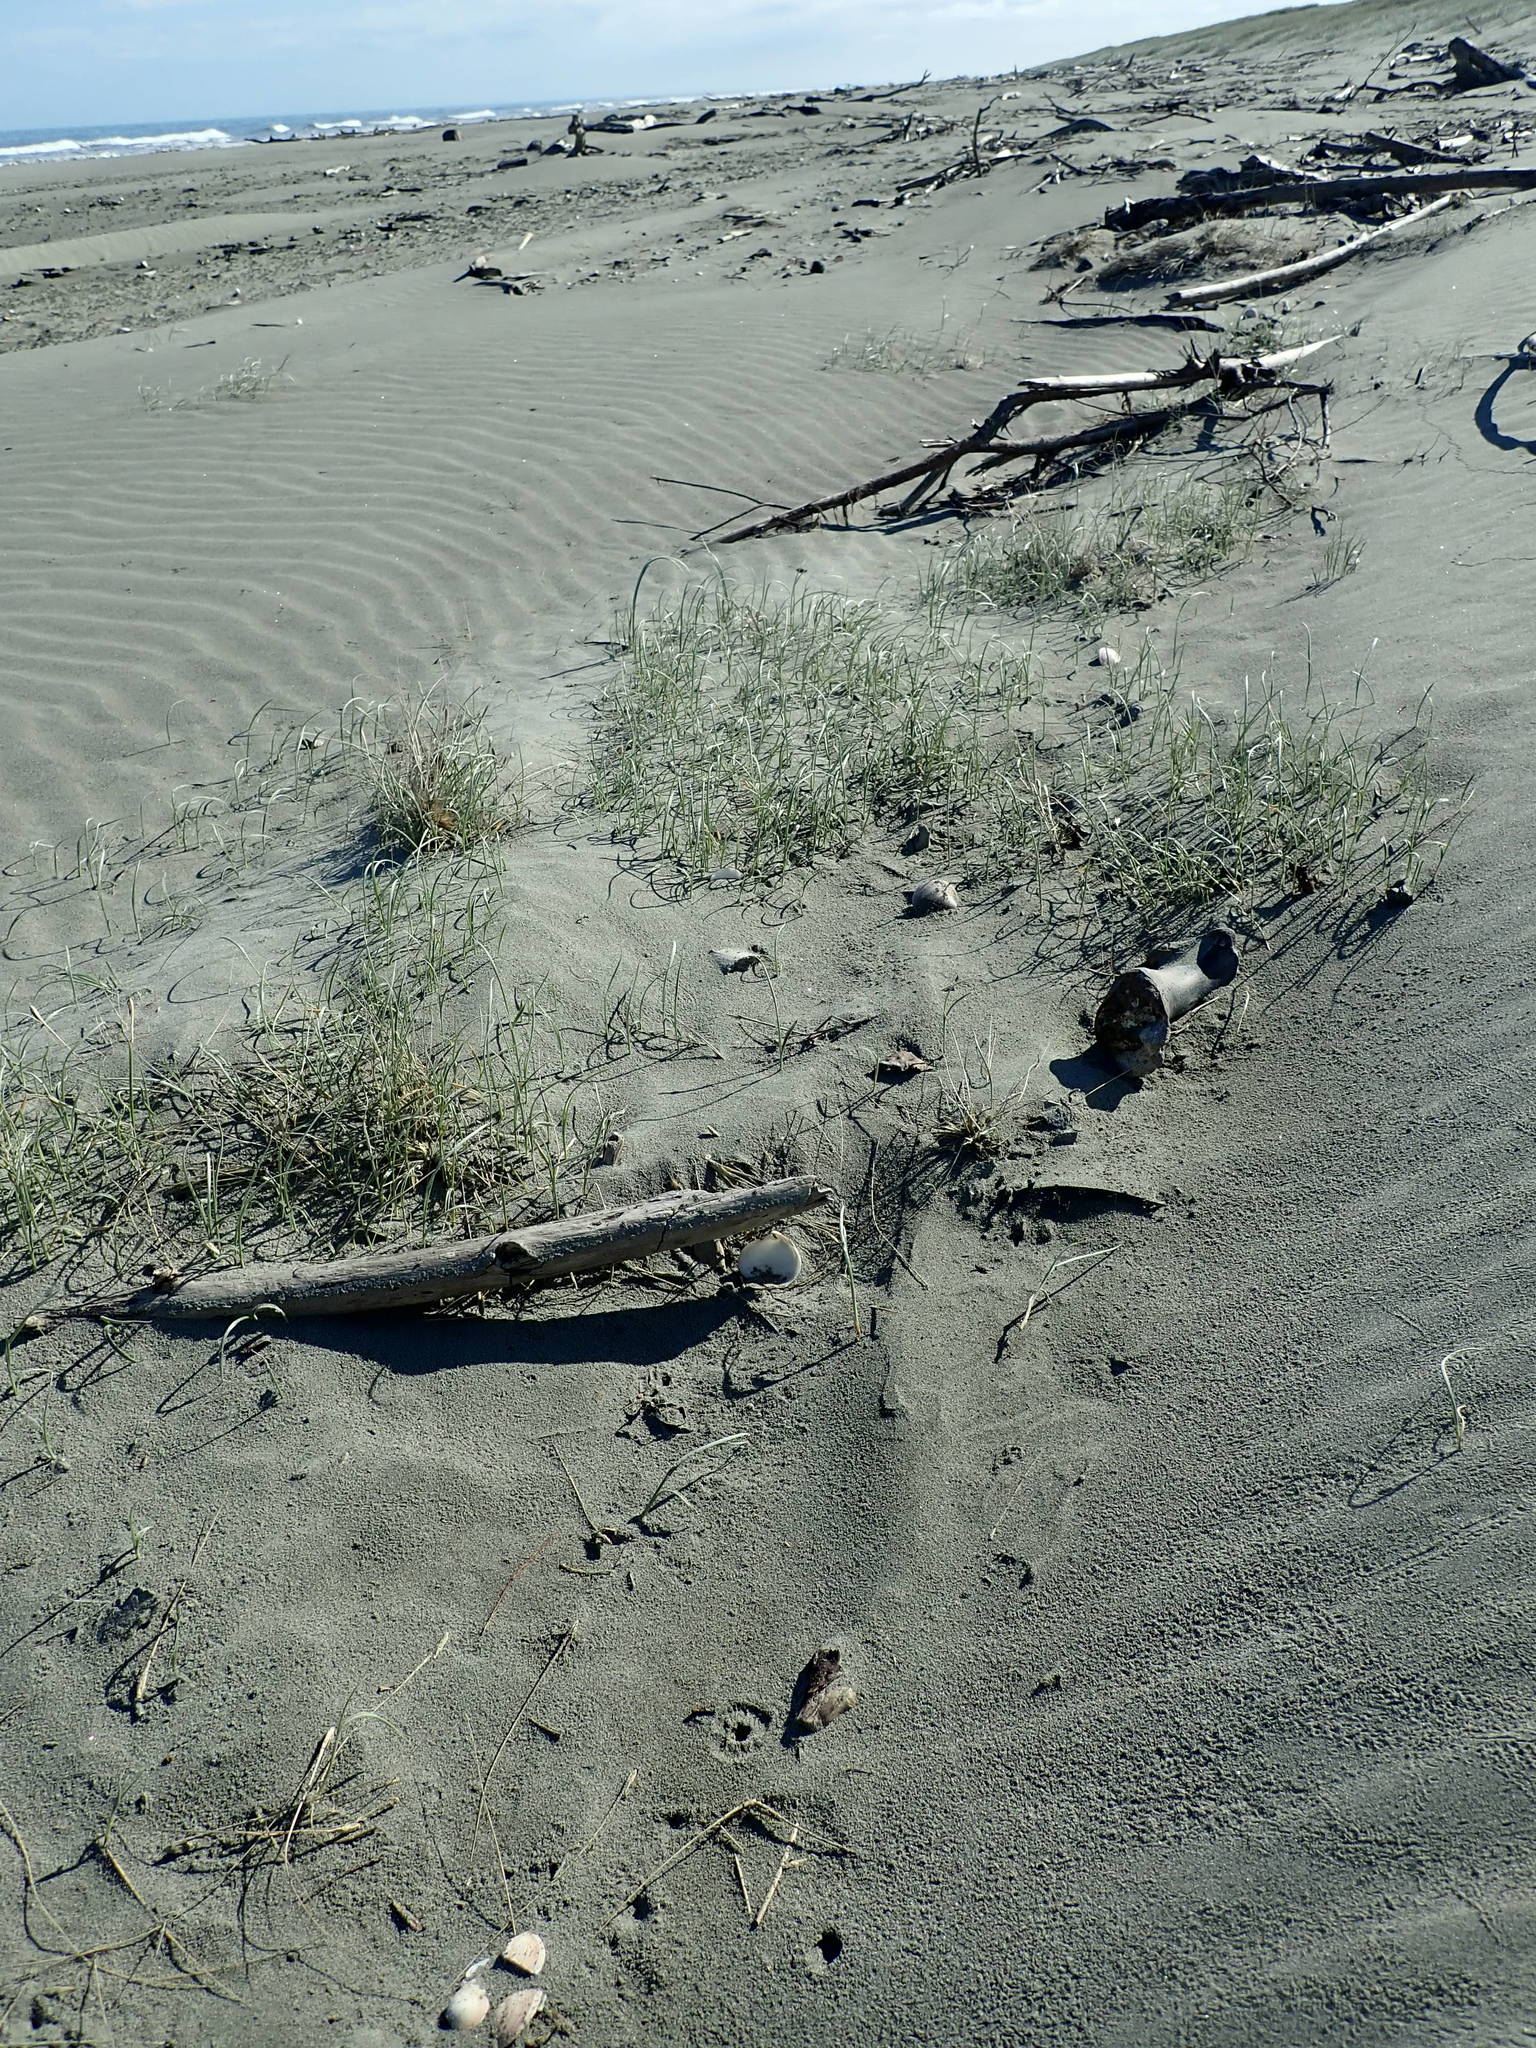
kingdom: Plantae
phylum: Tracheophyta
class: Liliopsida
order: Poales
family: Poaceae
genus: Spinifex
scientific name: Spinifex sericeus
